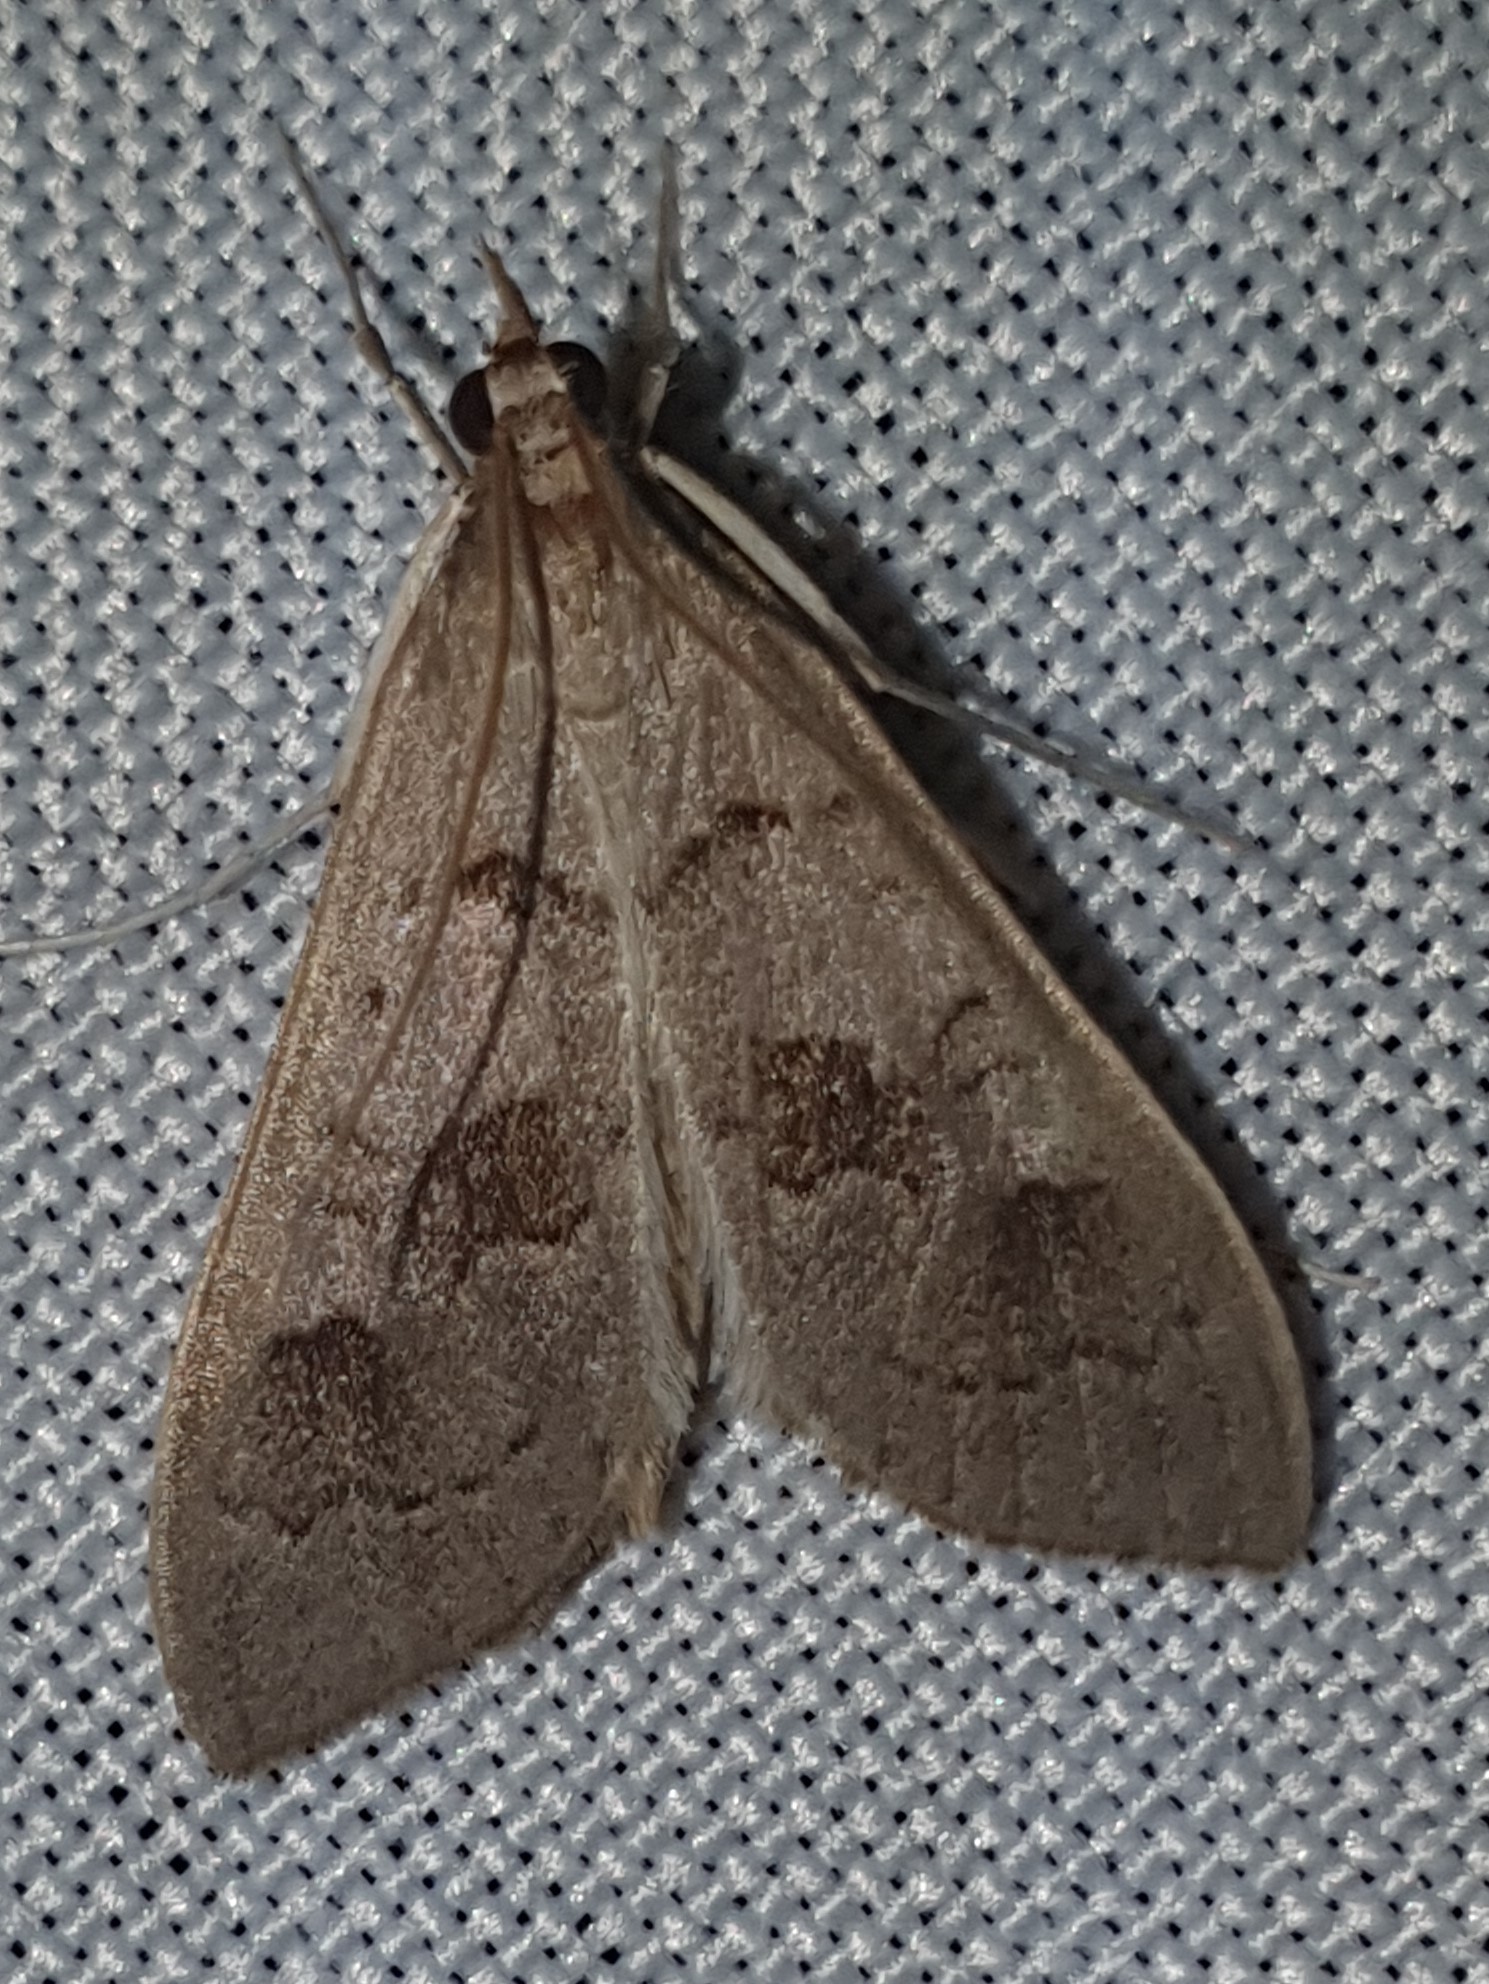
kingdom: Animalia
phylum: Arthropoda
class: Insecta
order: Lepidoptera
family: Crambidae
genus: Mecyna
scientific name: Mecyna asinalis
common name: Coastal pearl
